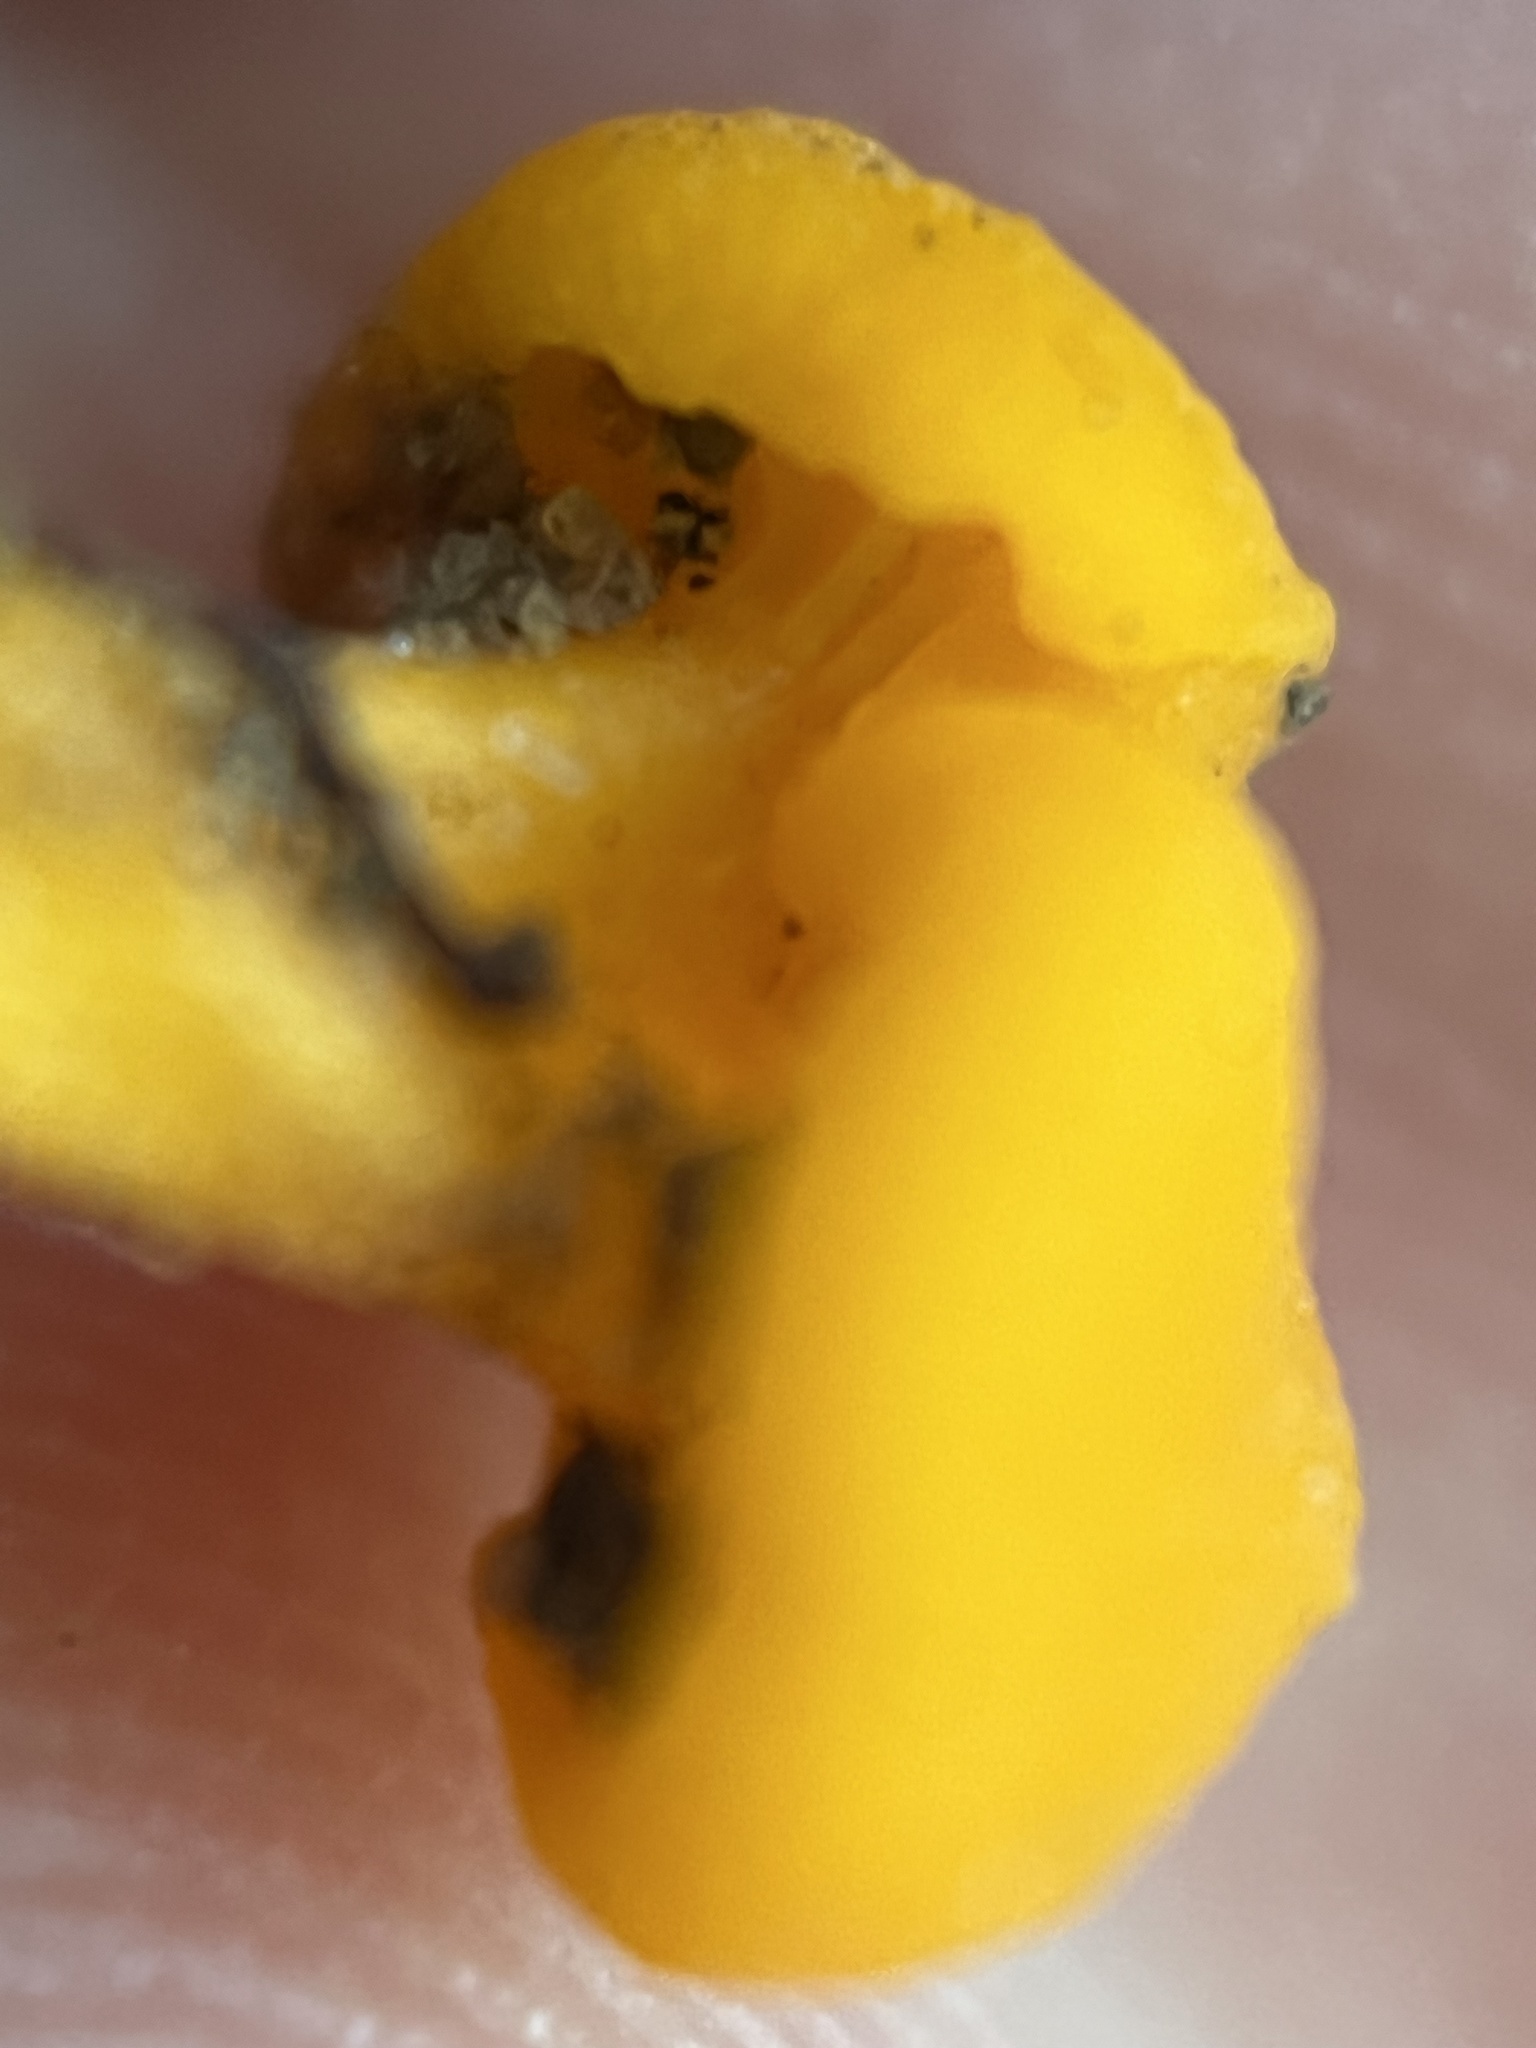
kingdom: Fungi
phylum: Basidiomycota
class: Agaricomycetes
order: Cantharellales
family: Hydnaceae
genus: Cantharellus
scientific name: Cantharellus minor
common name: Small chanterelle
